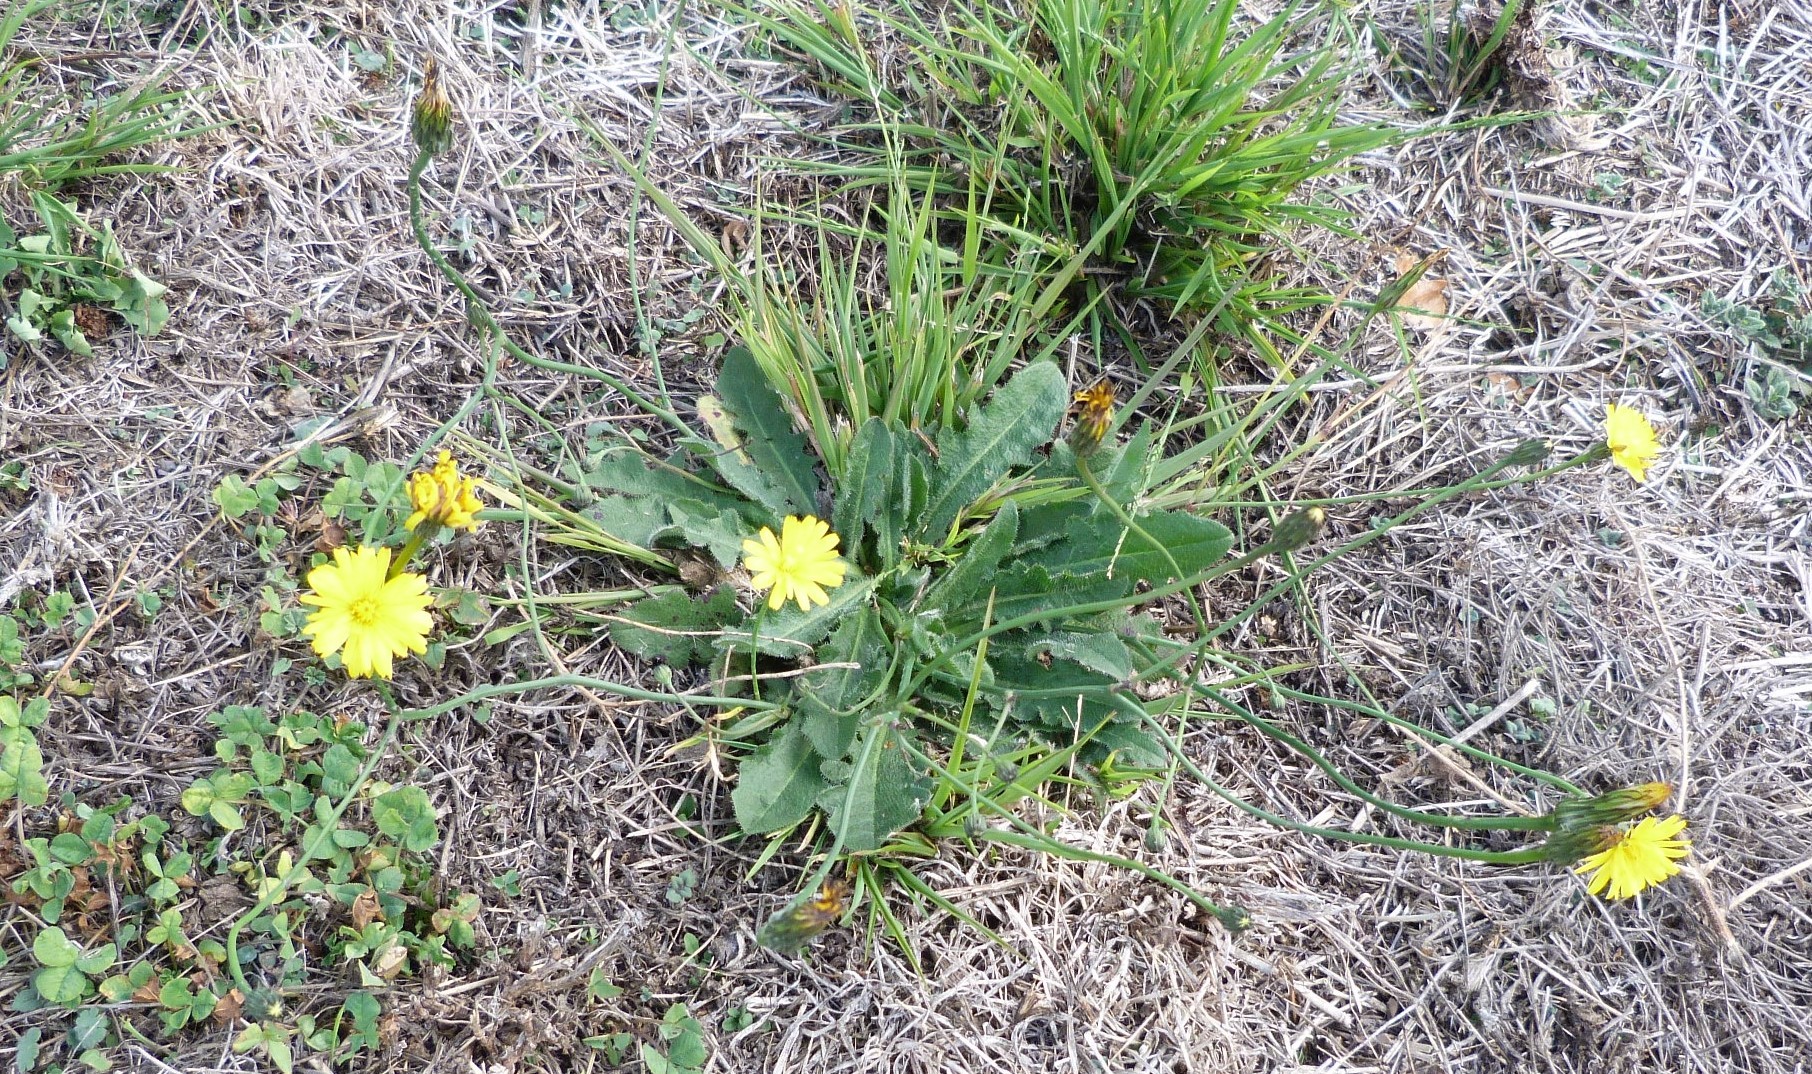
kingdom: Plantae
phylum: Tracheophyta
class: Magnoliopsida
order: Asterales
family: Asteraceae
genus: Hypochaeris
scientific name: Hypochaeris radicata
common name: Flatweed
